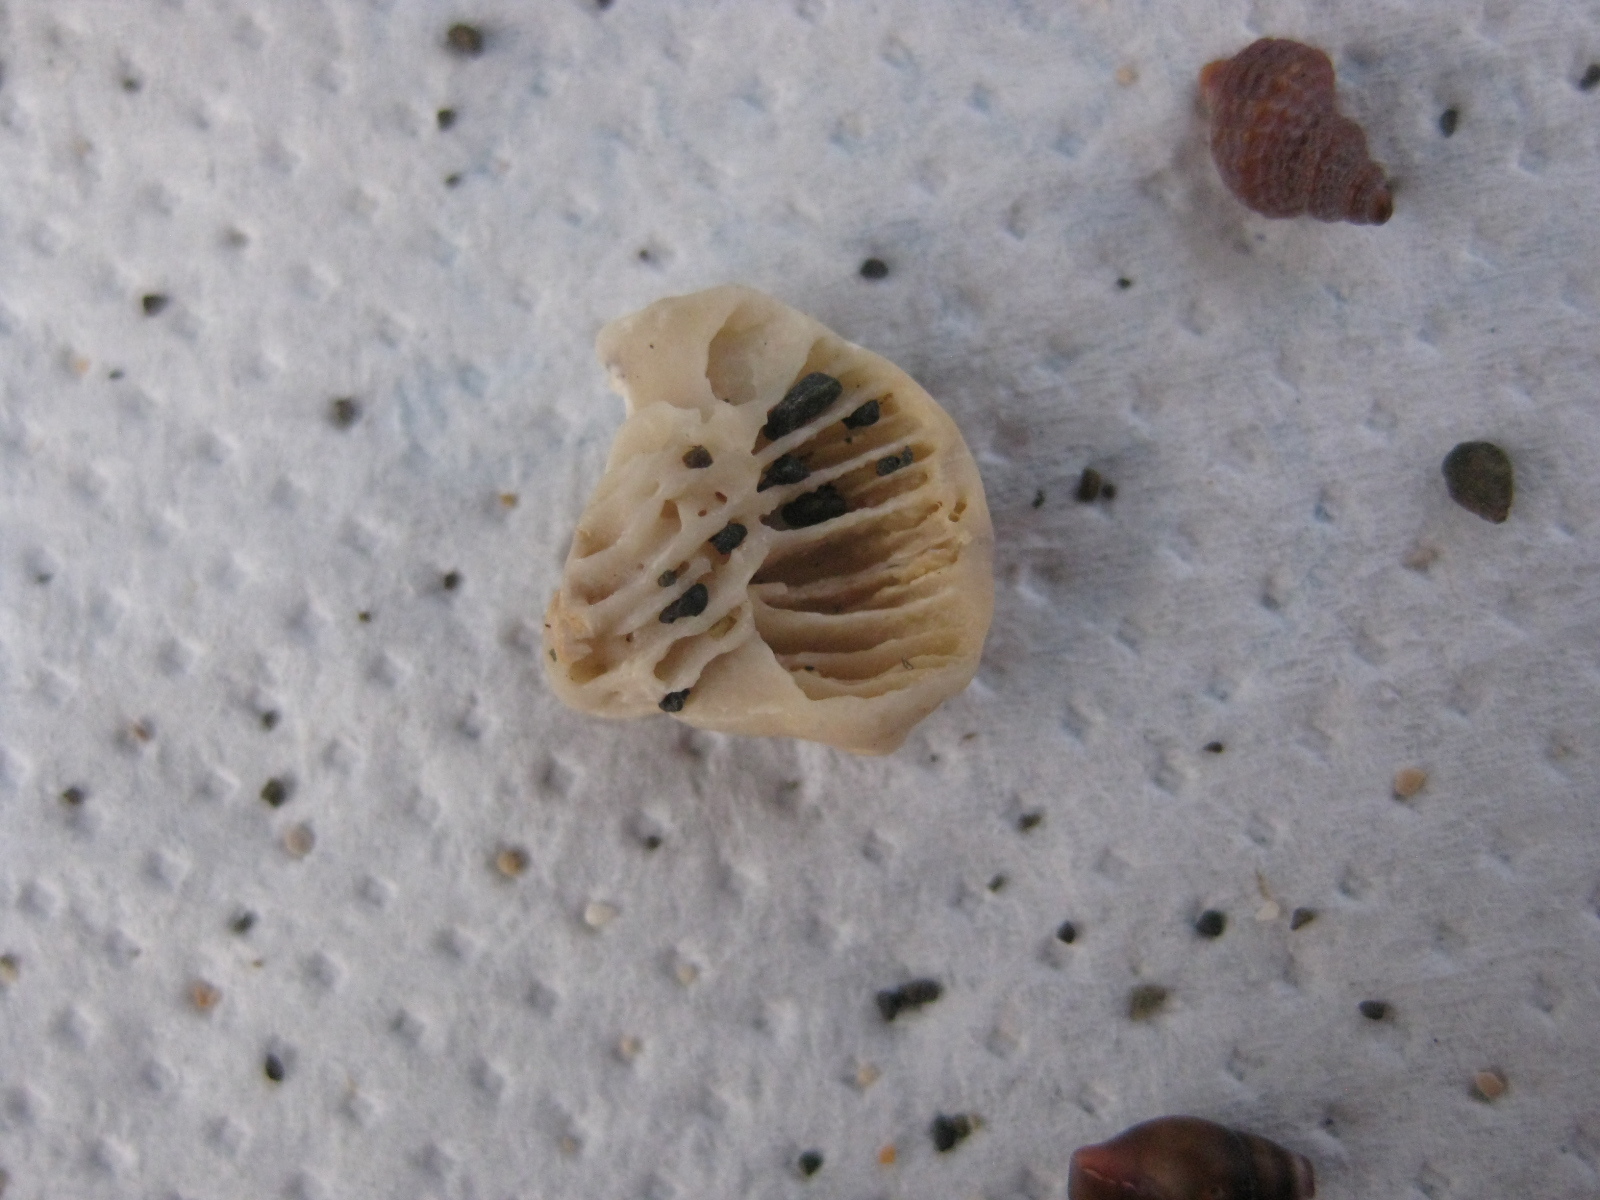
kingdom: Animalia
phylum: Cnidaria
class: Anthozoa
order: Scleractinia
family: Rhizangiidae
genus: Culicia
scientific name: Culicia rubeola
